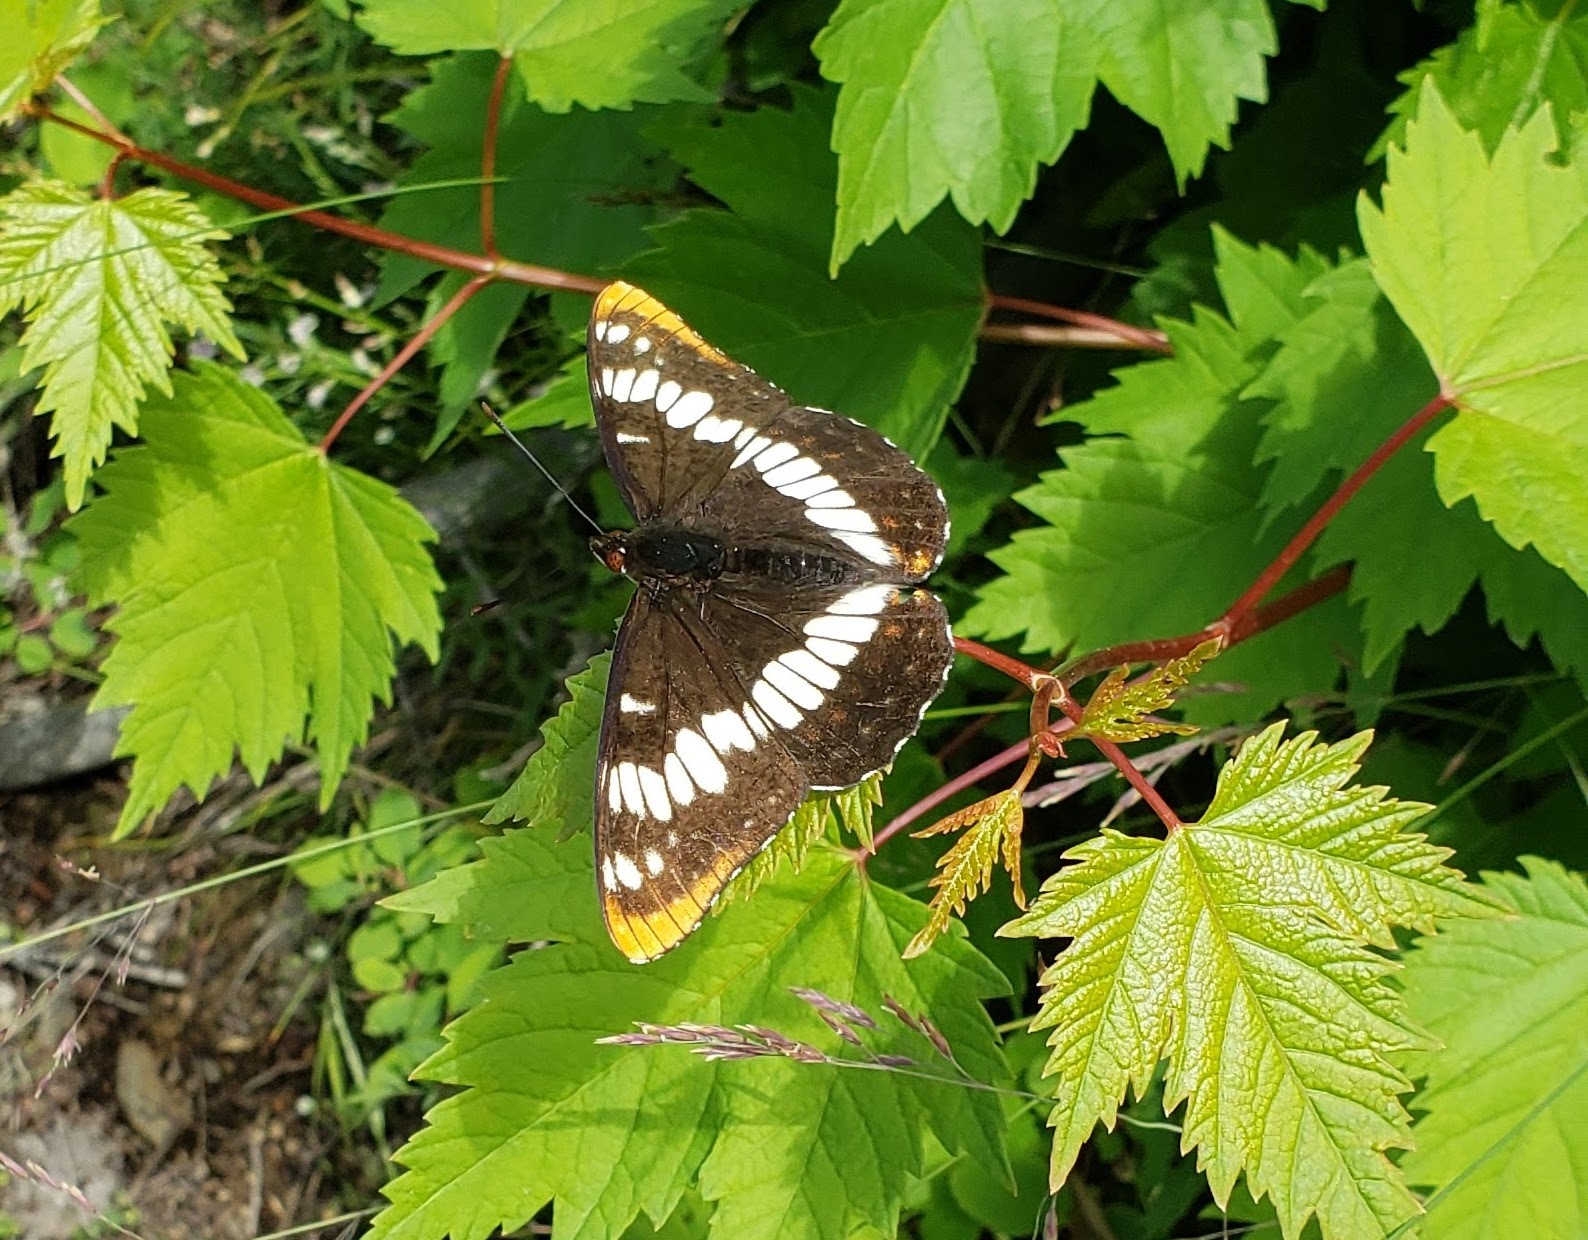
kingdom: Animalia
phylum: Arthropoda
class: Insecta
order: Lepidoptera
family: Nymphalidae
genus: Limenitis
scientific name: Limenitis lorquini
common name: Lorquin's admiral
